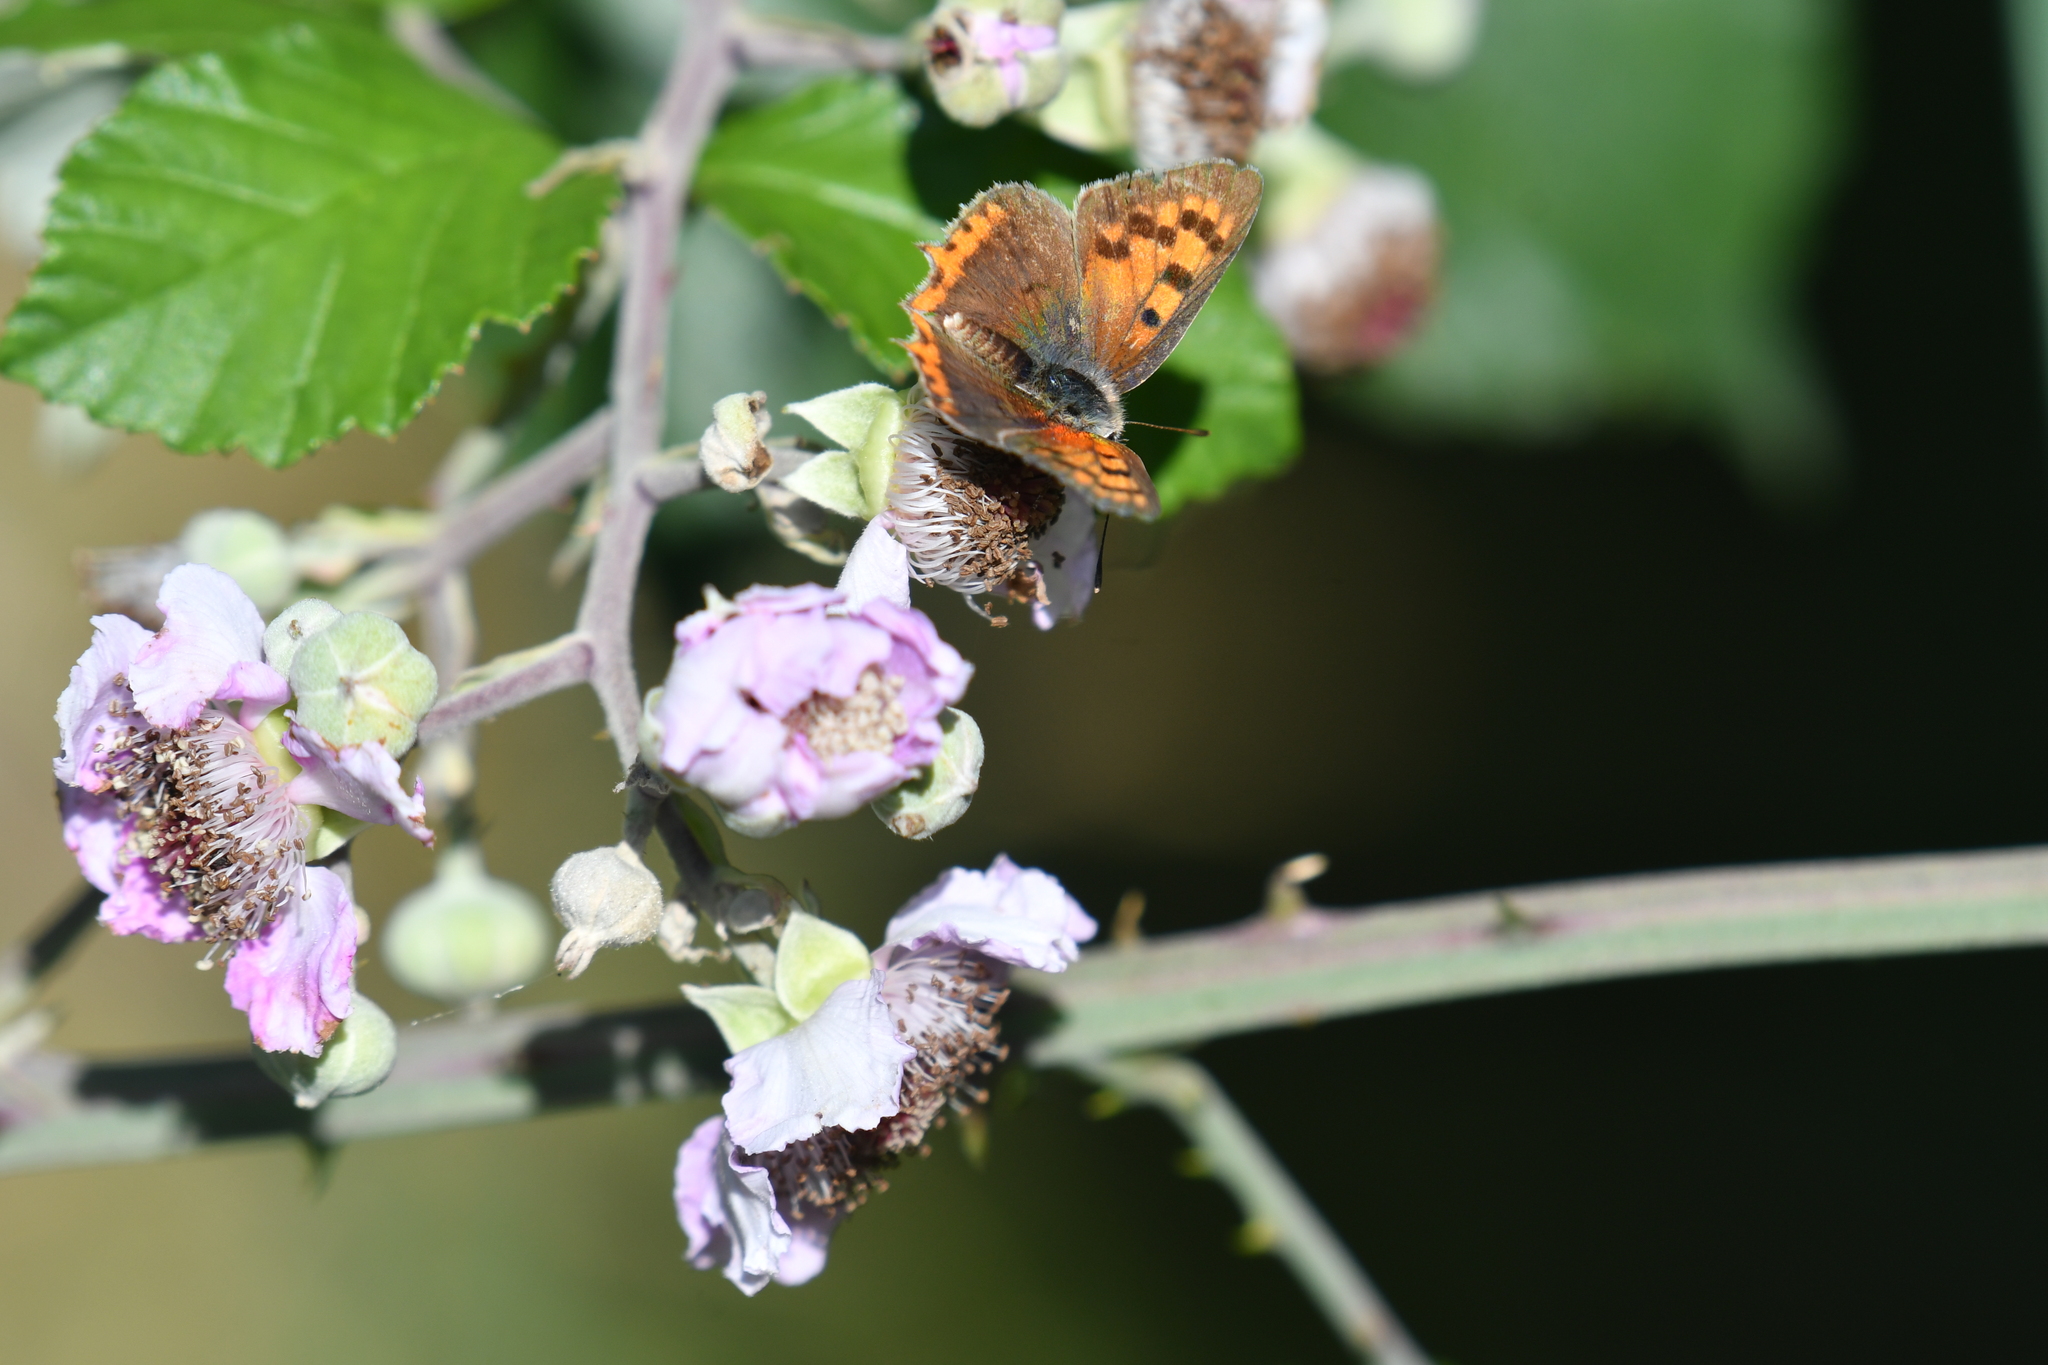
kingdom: Animalia
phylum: Arthropoda
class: Insecta
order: Lepidoptera
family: Lycaenidae
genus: Lycaena
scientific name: Lycaena phlaeas
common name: Small copper
